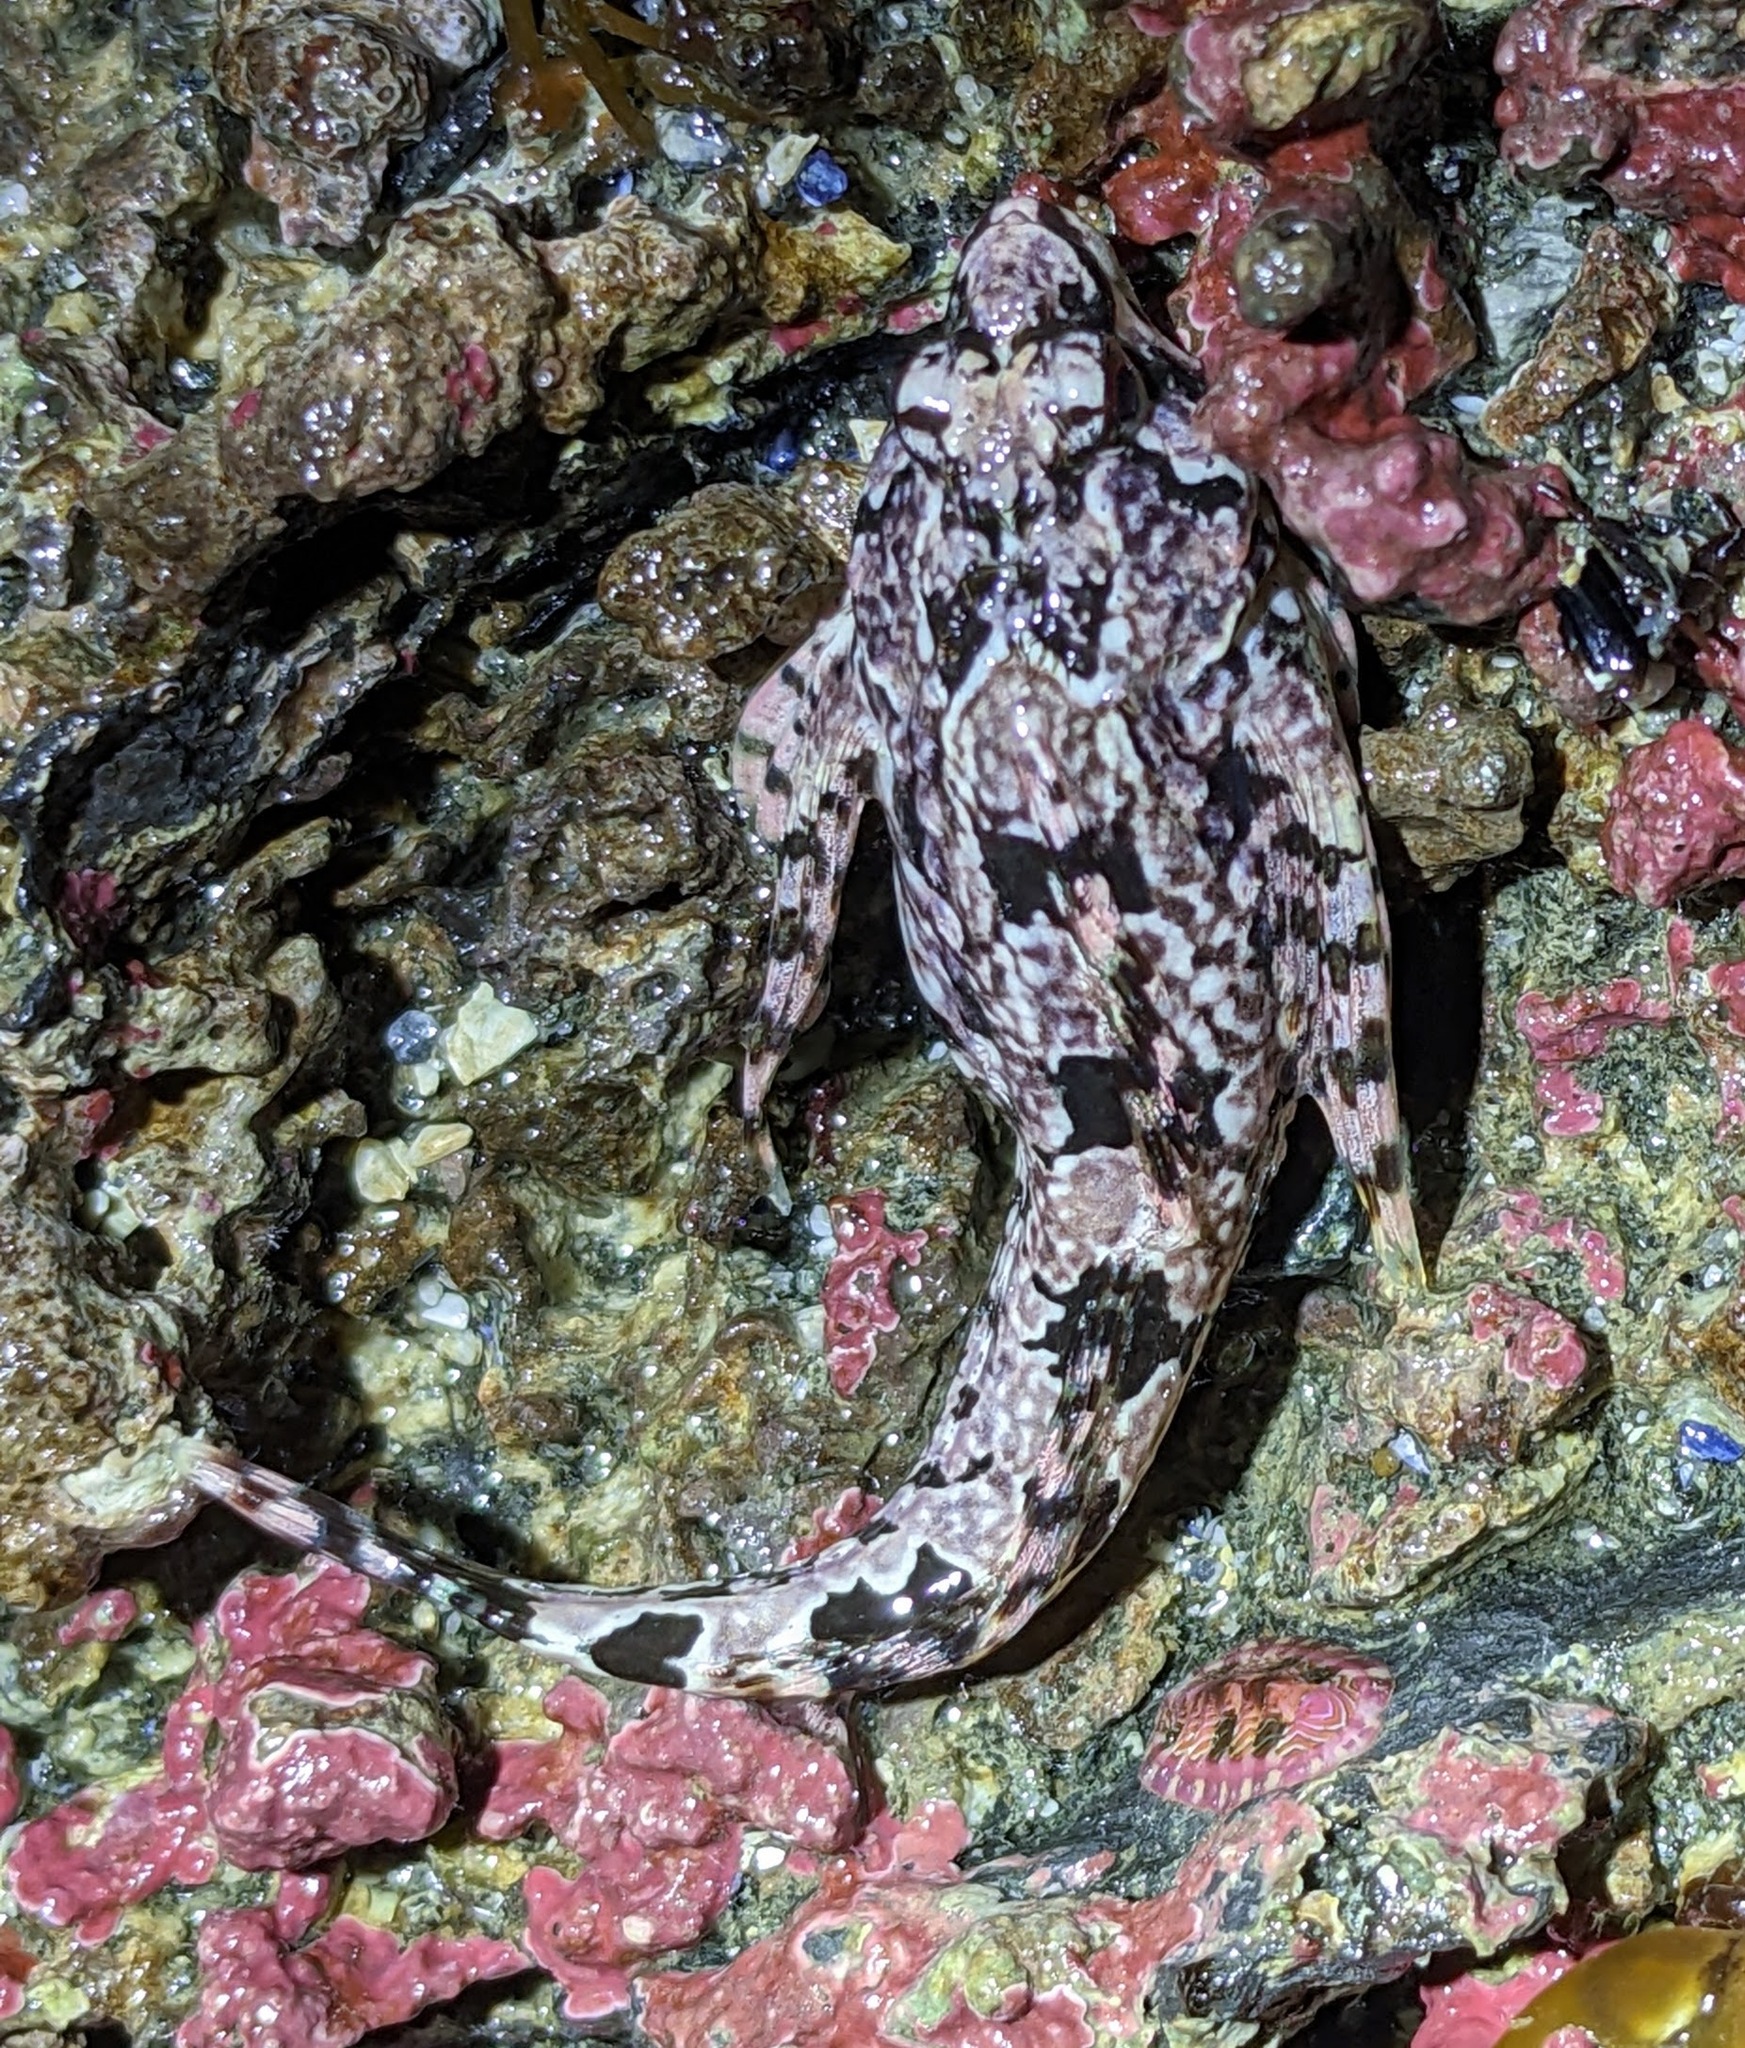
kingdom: Animalia
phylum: Chordata
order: Scorpaeniformes
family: Cottidae
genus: Clinocottus
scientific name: Clinocottus embryum
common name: Calico sculpin
